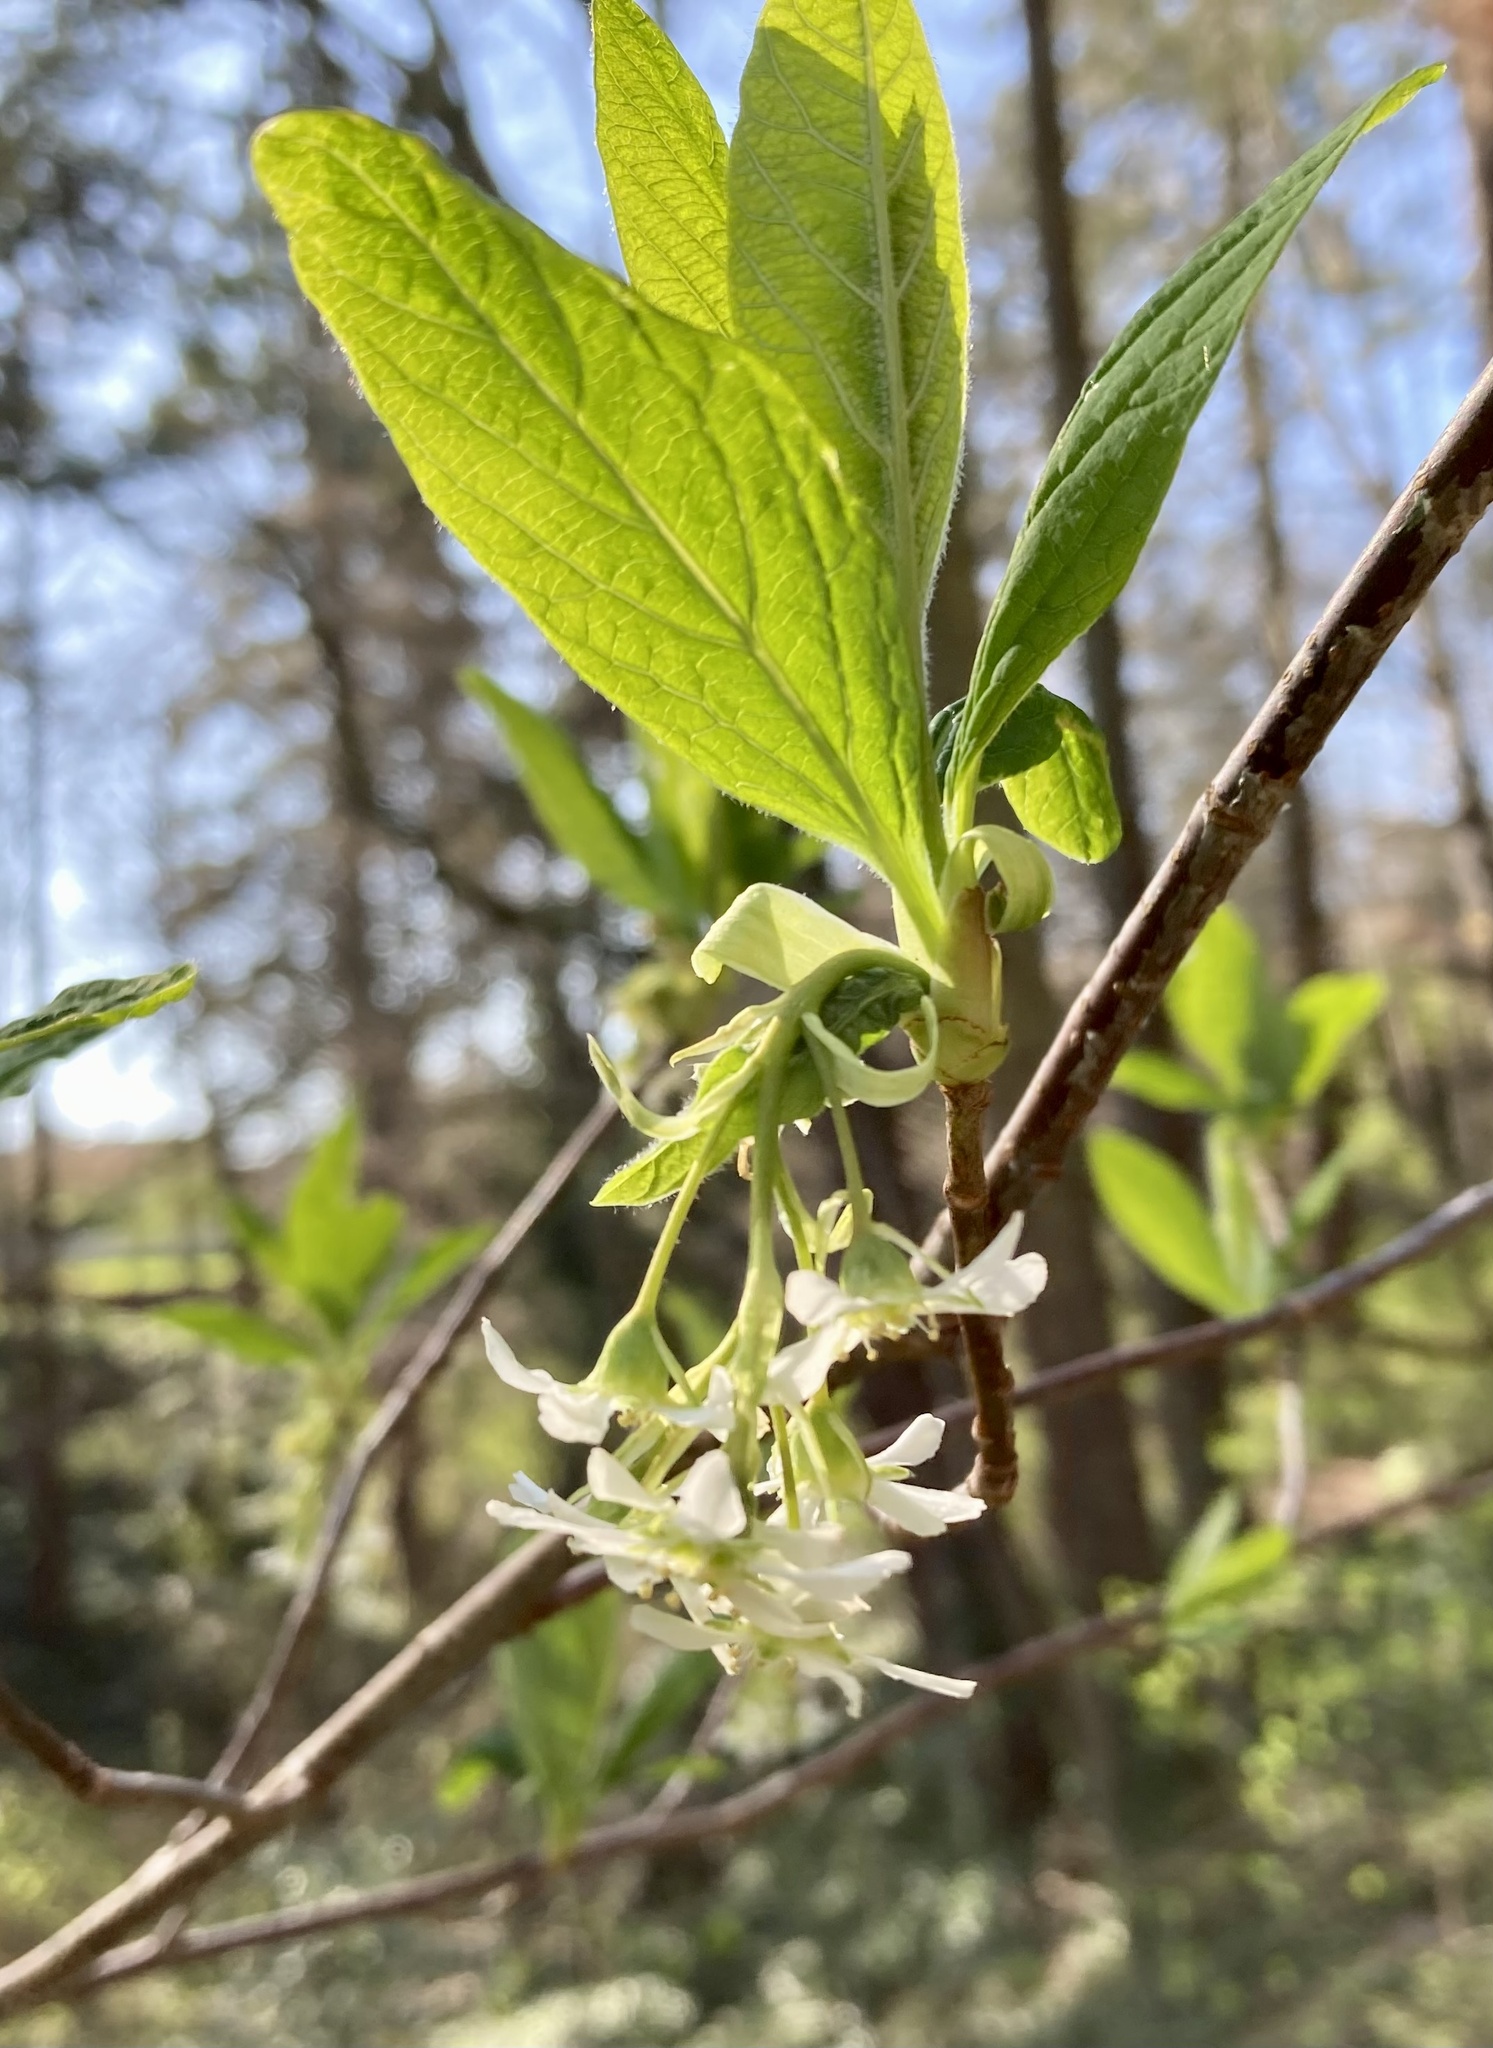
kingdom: Plantae
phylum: Tracheophyta
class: Magnoliopsida
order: Rosales
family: Rosaceae
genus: Oemleria
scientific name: Oemleria cerasiformis
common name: Osoberry
